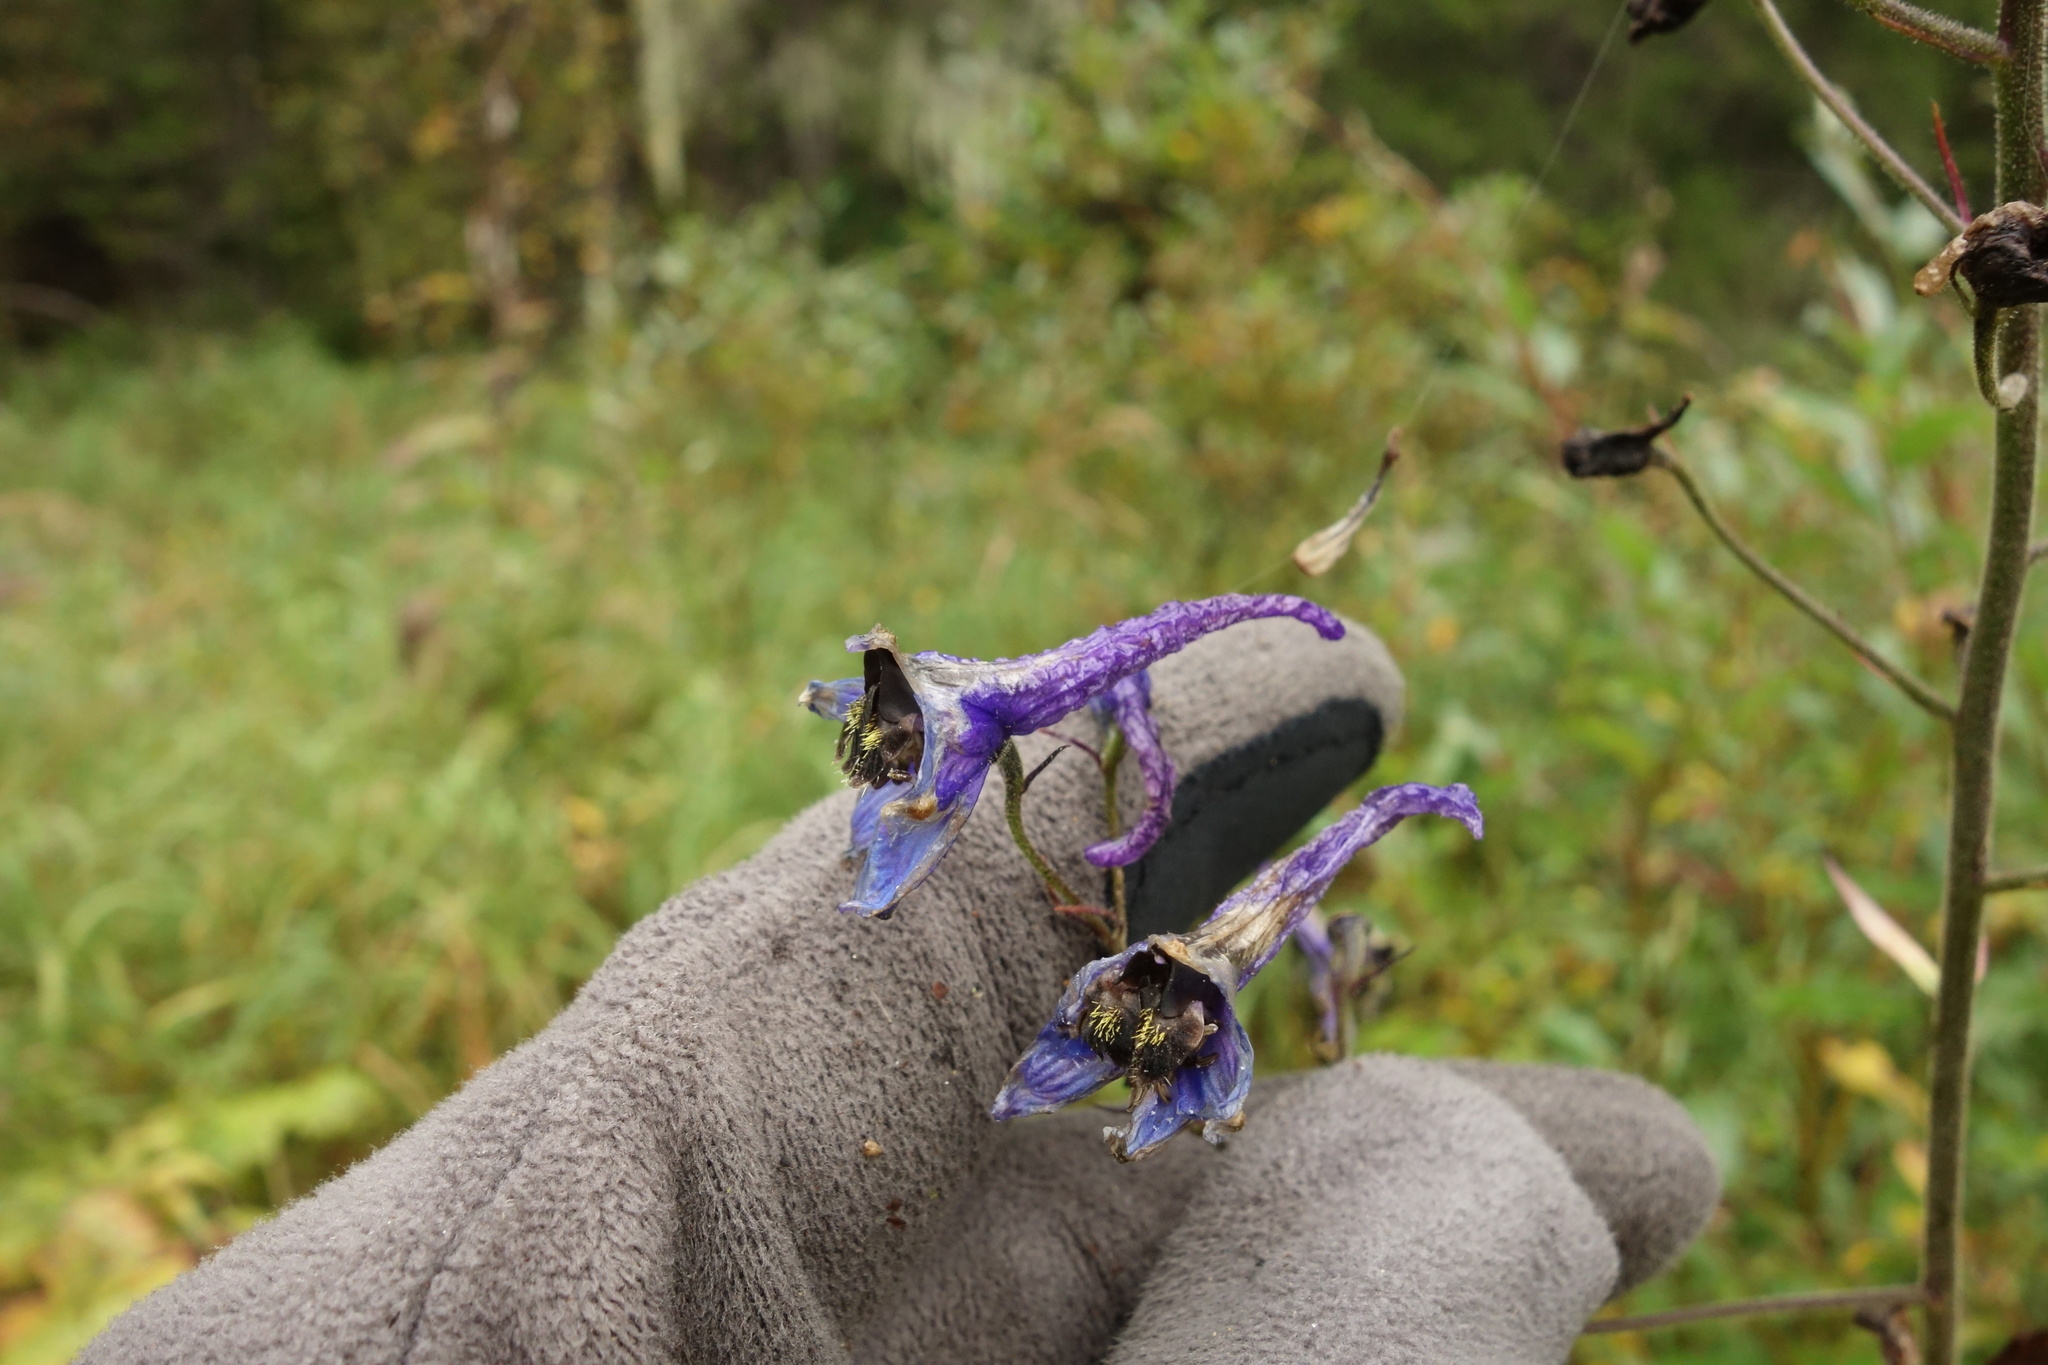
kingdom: Plantae
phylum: Tracheophyta
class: Magnoliopsida
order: Ranunculales
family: Ranunculaceae
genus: Delphinium
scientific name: Delphinium elatum
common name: Candle larkspur
